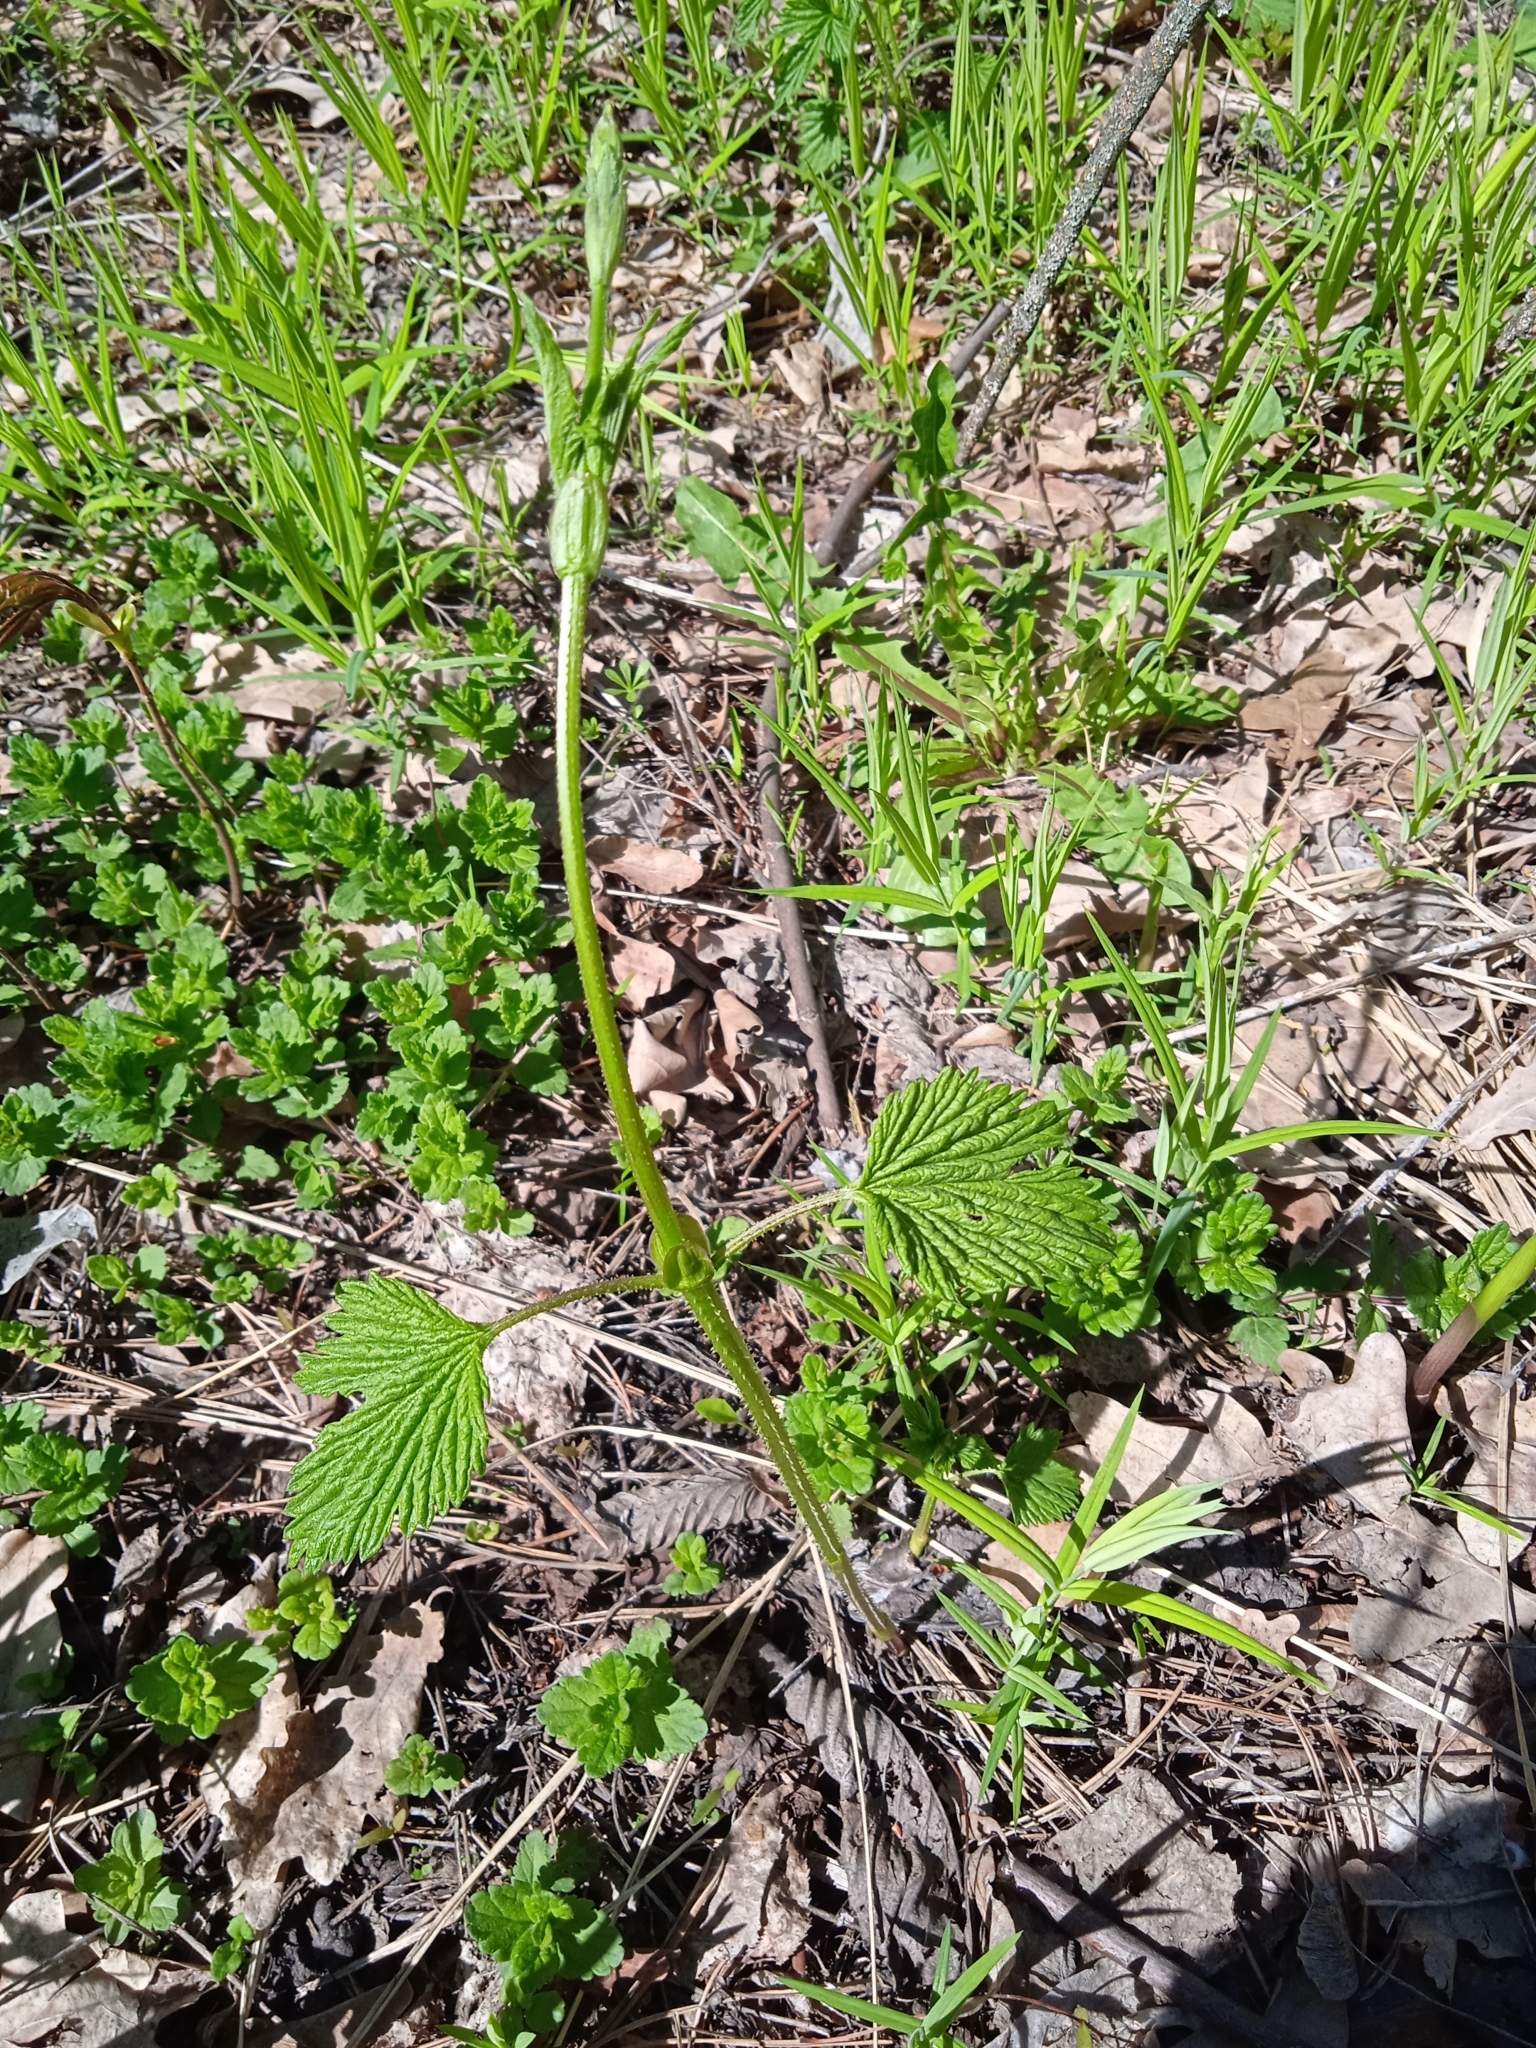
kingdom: Plantae
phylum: Tracheophyta
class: Magnoliopsida
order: Rosales
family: Cannabaceae
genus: Humulus
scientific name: Humulus lupulus
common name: Hop
